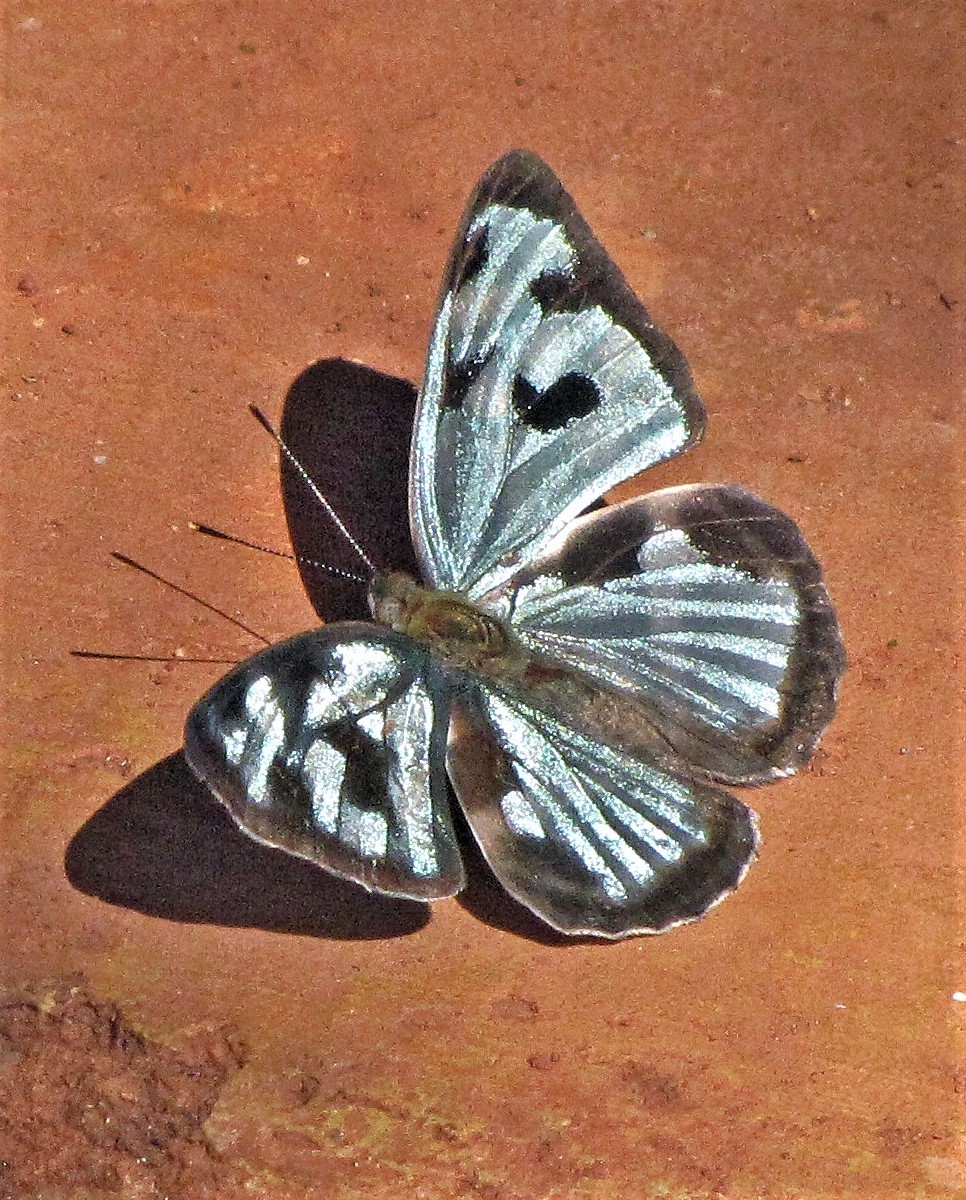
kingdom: Animalia
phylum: Arthropoda
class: Insecta
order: Lepidoptera
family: Nymphalidae
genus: Dynamine
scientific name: Dynamine mylitta
